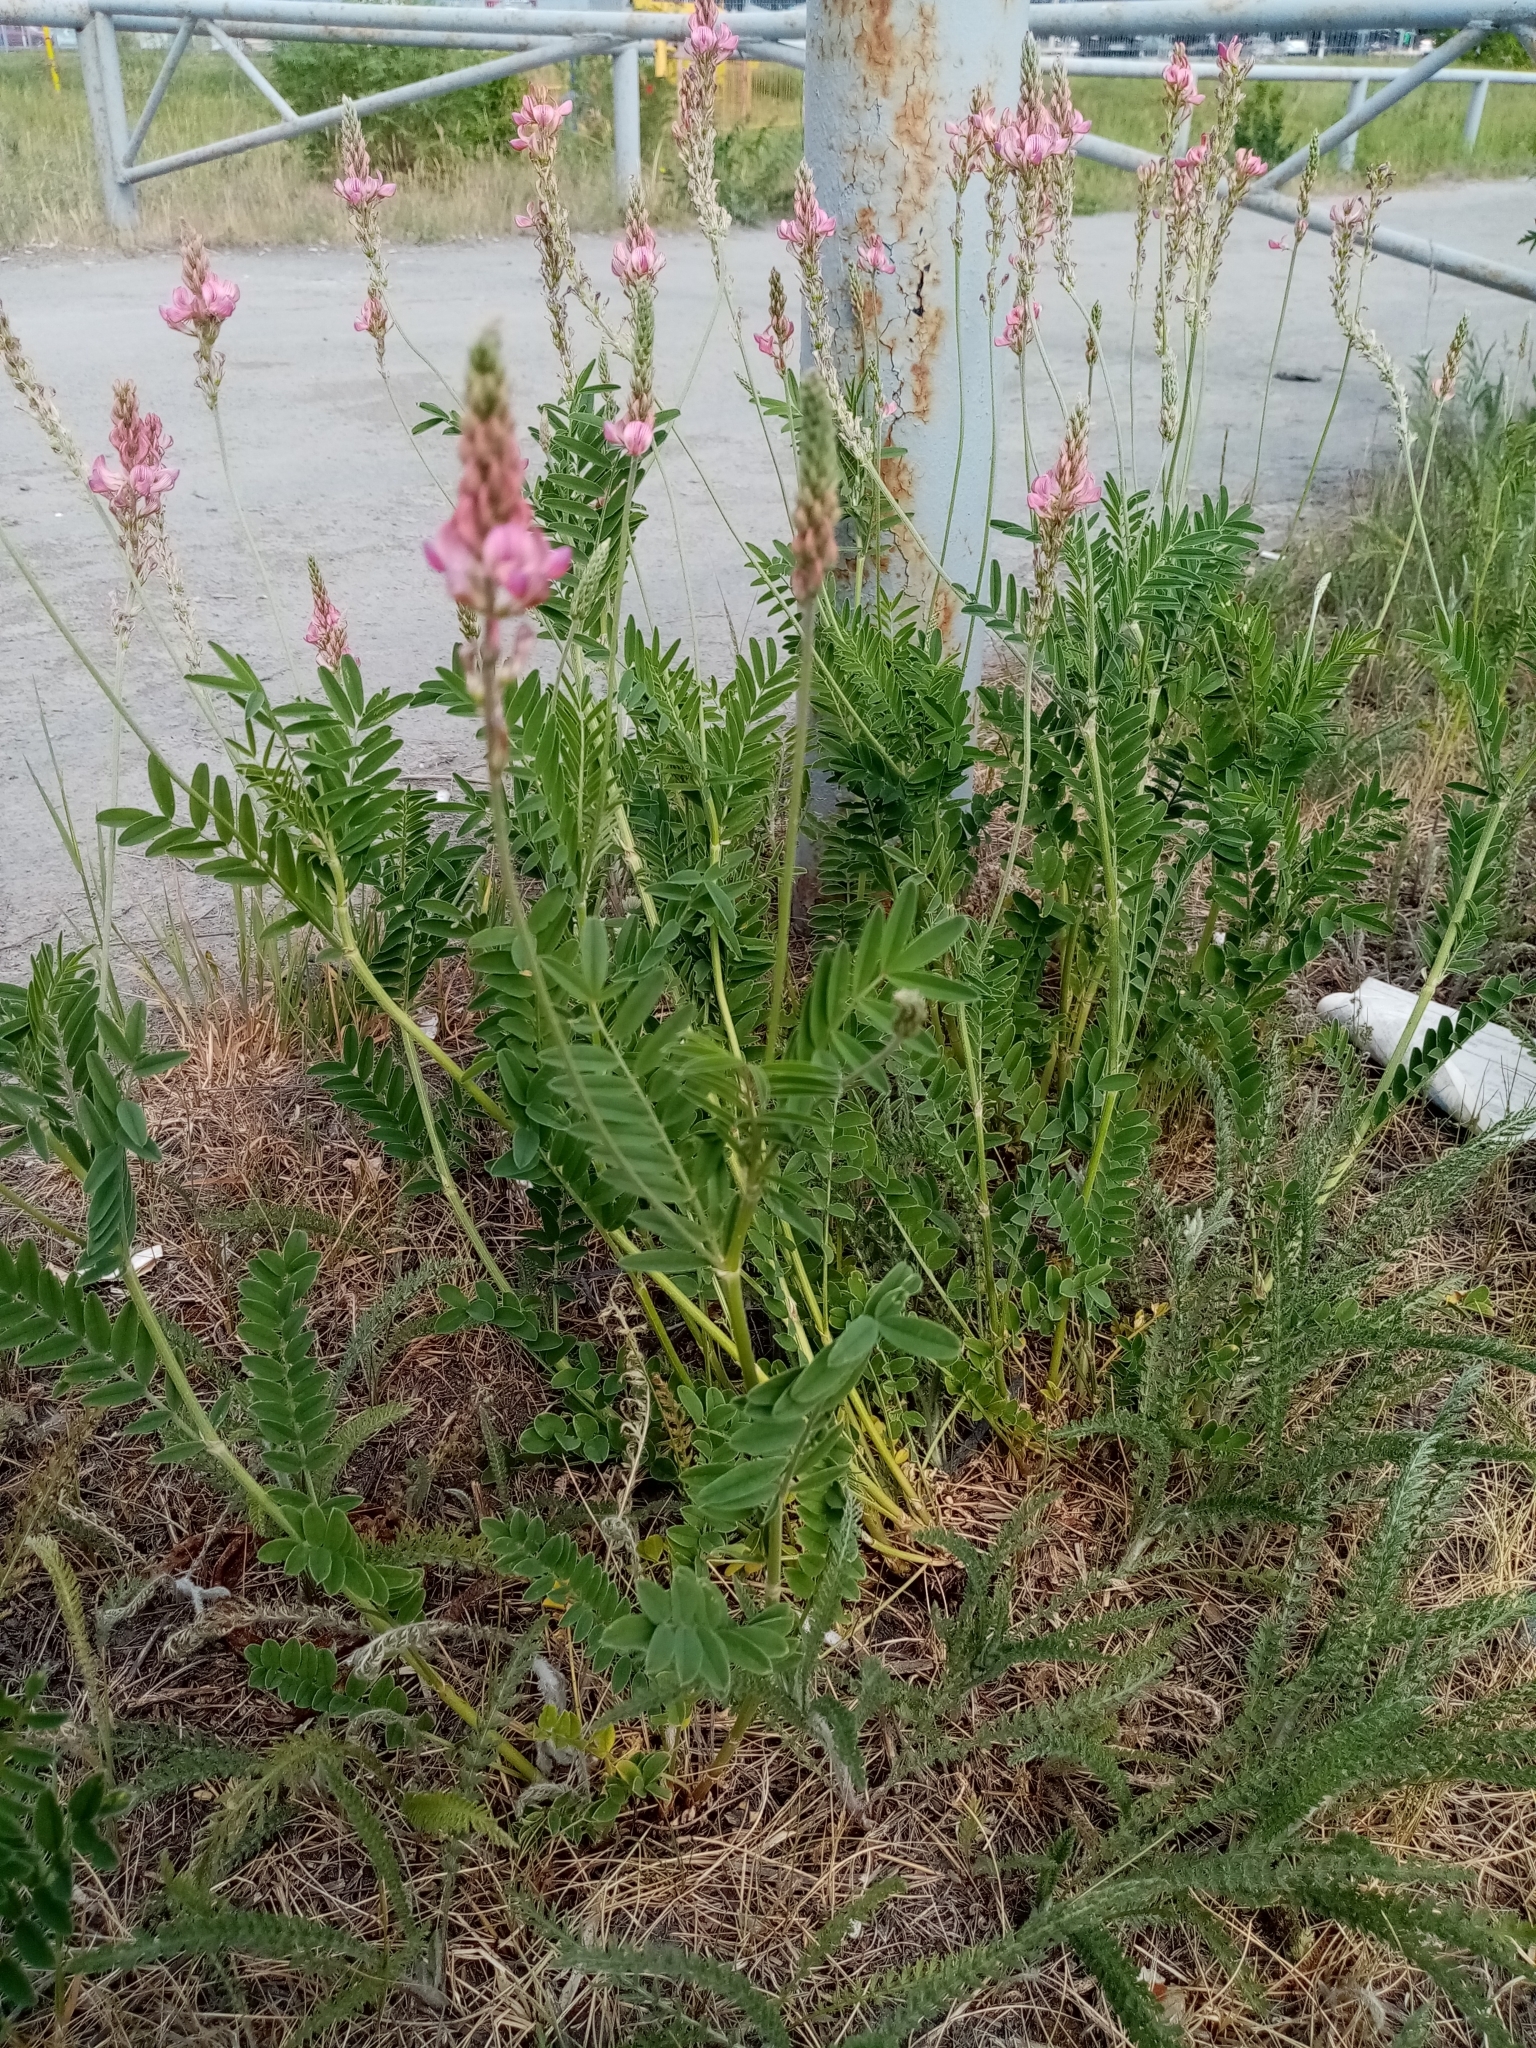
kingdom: Plantae
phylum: Tracheophyta
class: Magnoliopsida
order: Fabales
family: Fabaceae
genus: Onobrychis
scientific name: Onobrychis viciifolia
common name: Sainfoin
